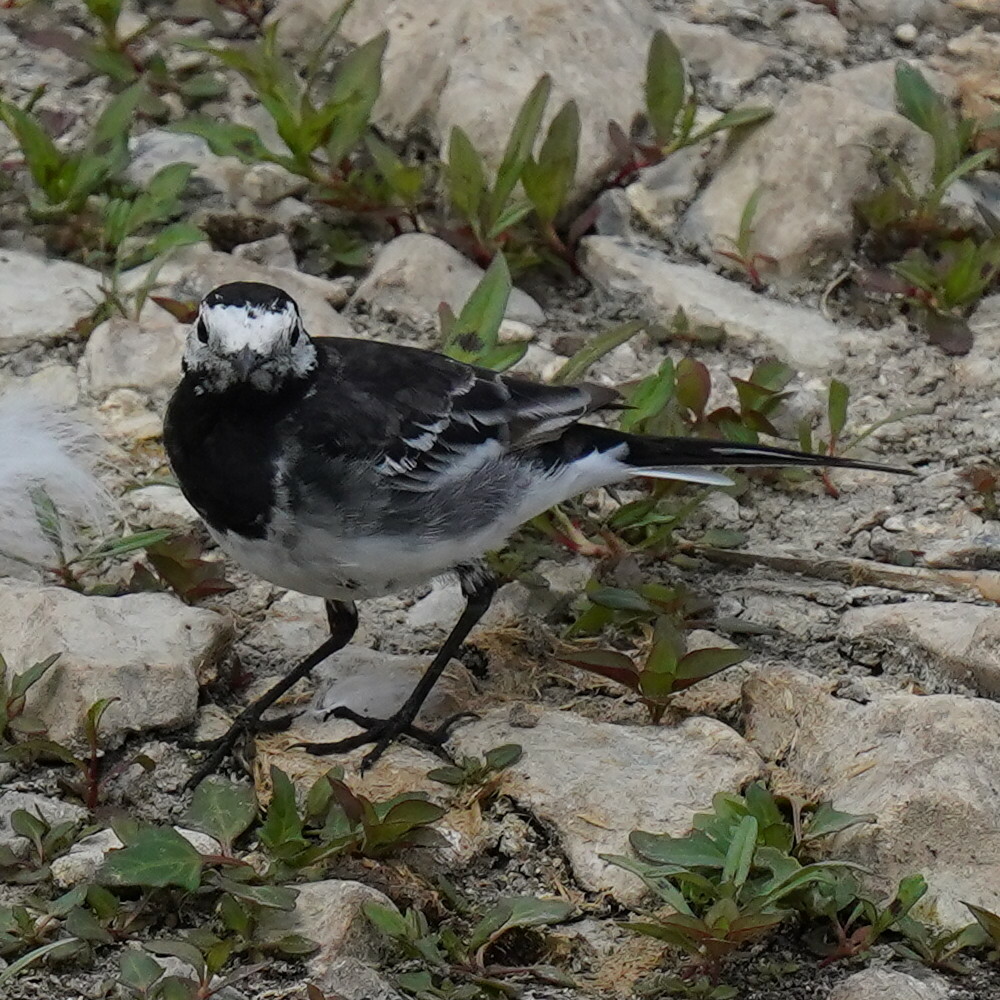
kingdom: Animalia
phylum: Chordata
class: Aves
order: Passeriformes
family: Motacillidae
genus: Motacilla
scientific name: Motacilla alba
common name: White wagtail
